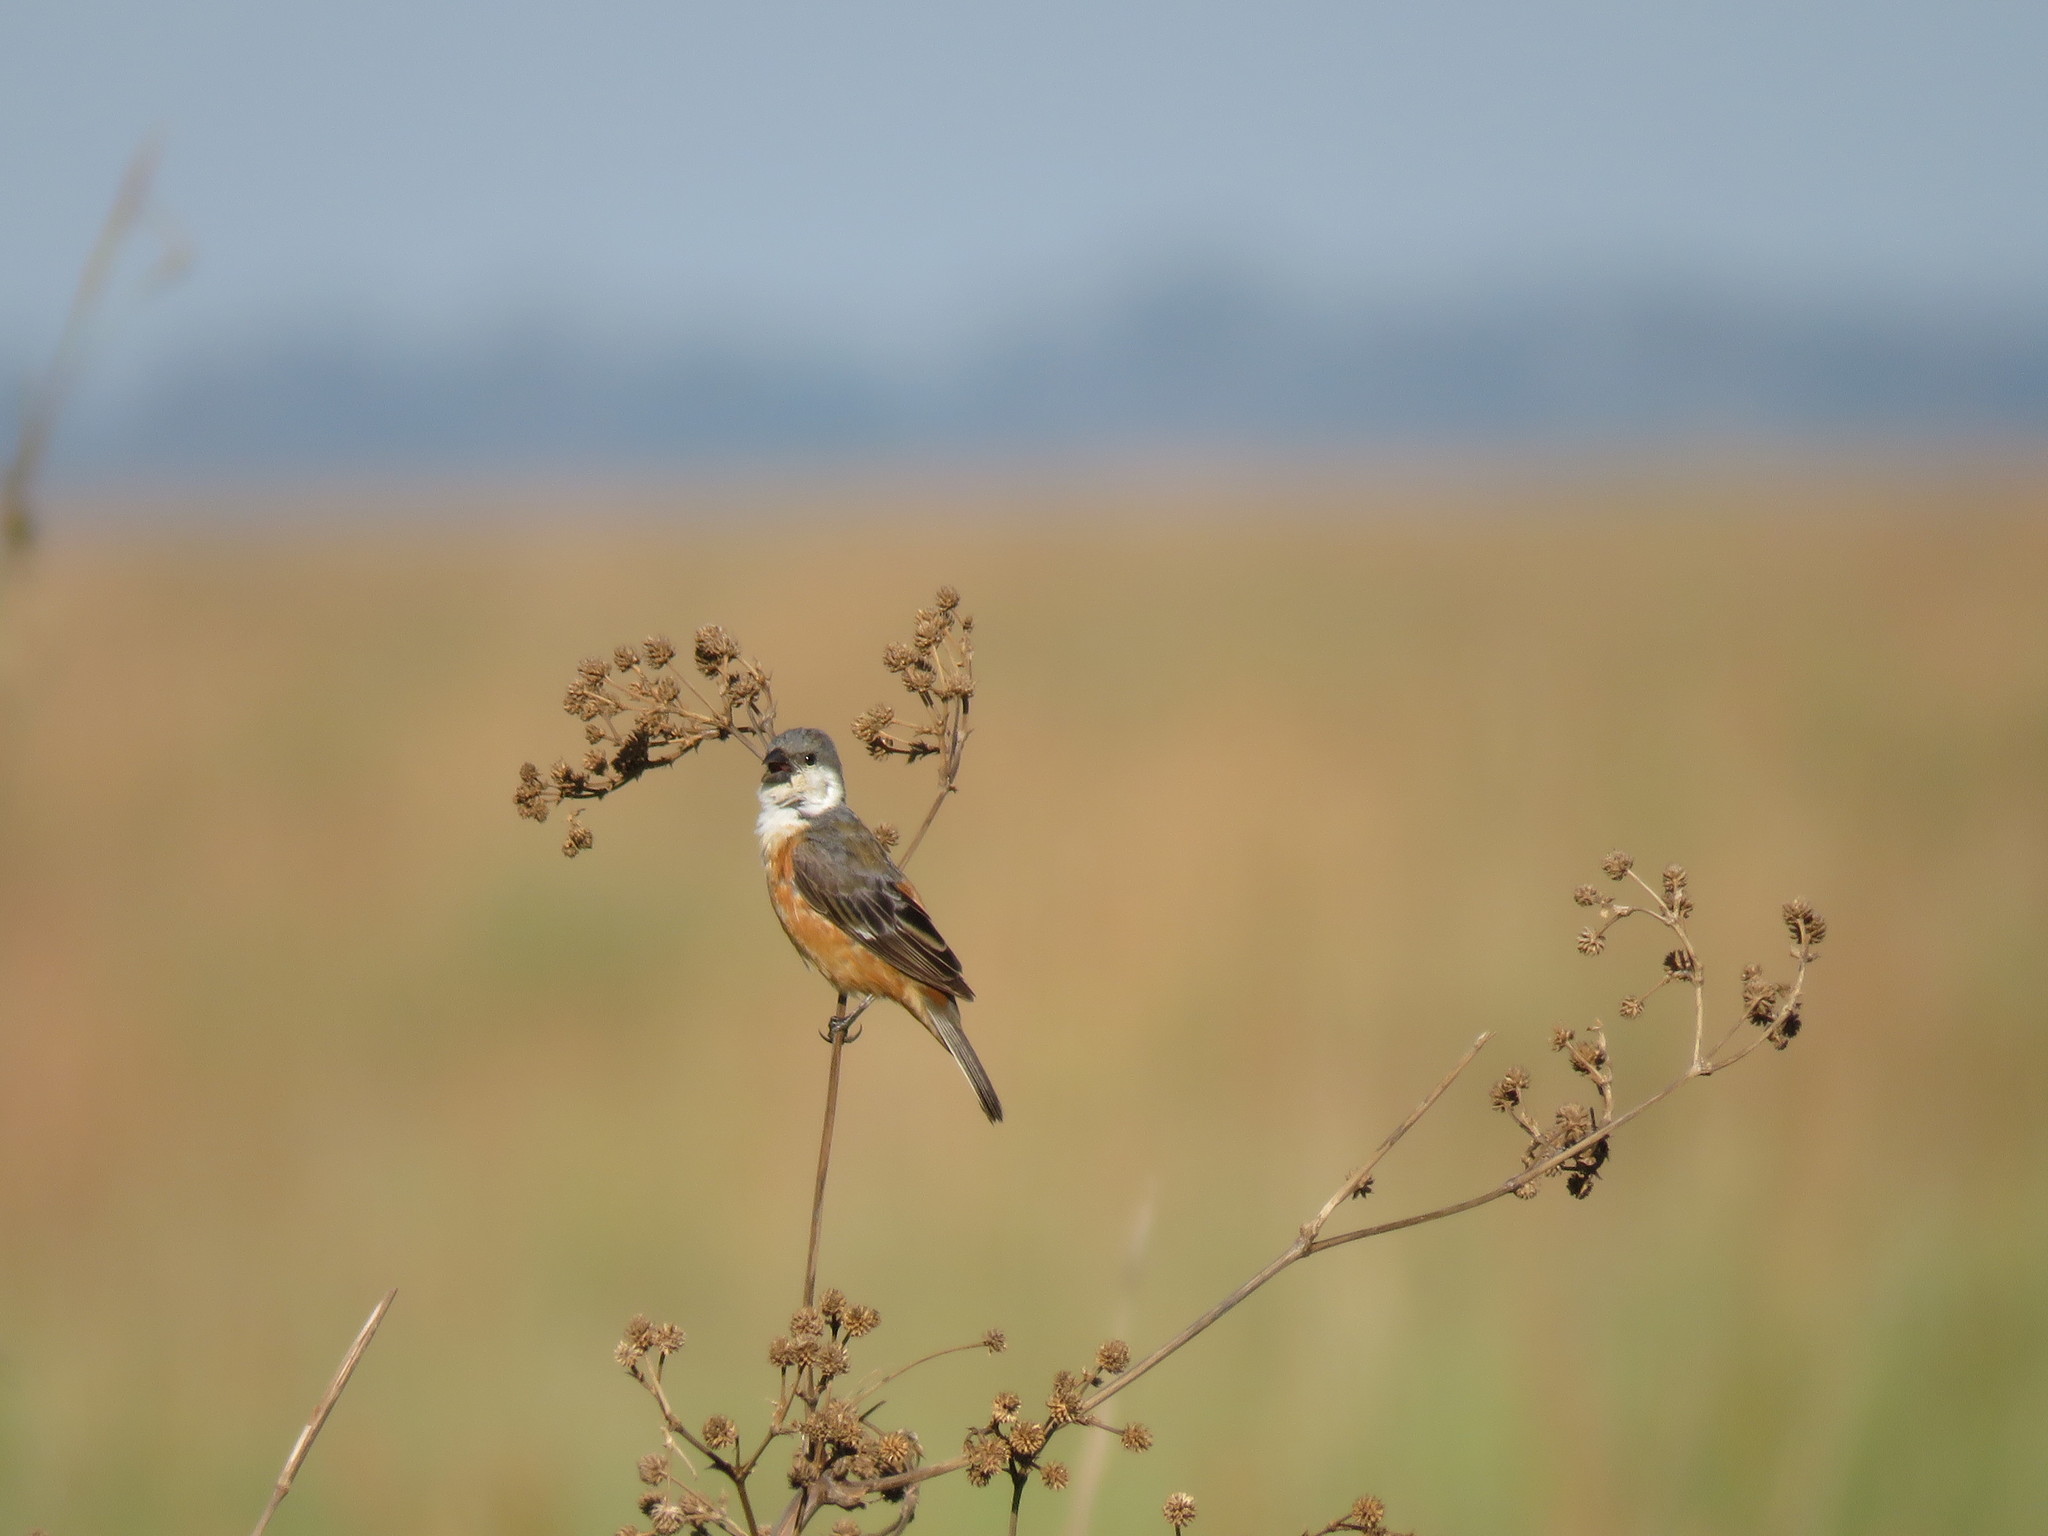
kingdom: Animalia
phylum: Chordata
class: Aves
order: Passeriformes
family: Thraupidae
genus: Sporophila
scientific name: Sporophila palustris
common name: Marsh seedeater
